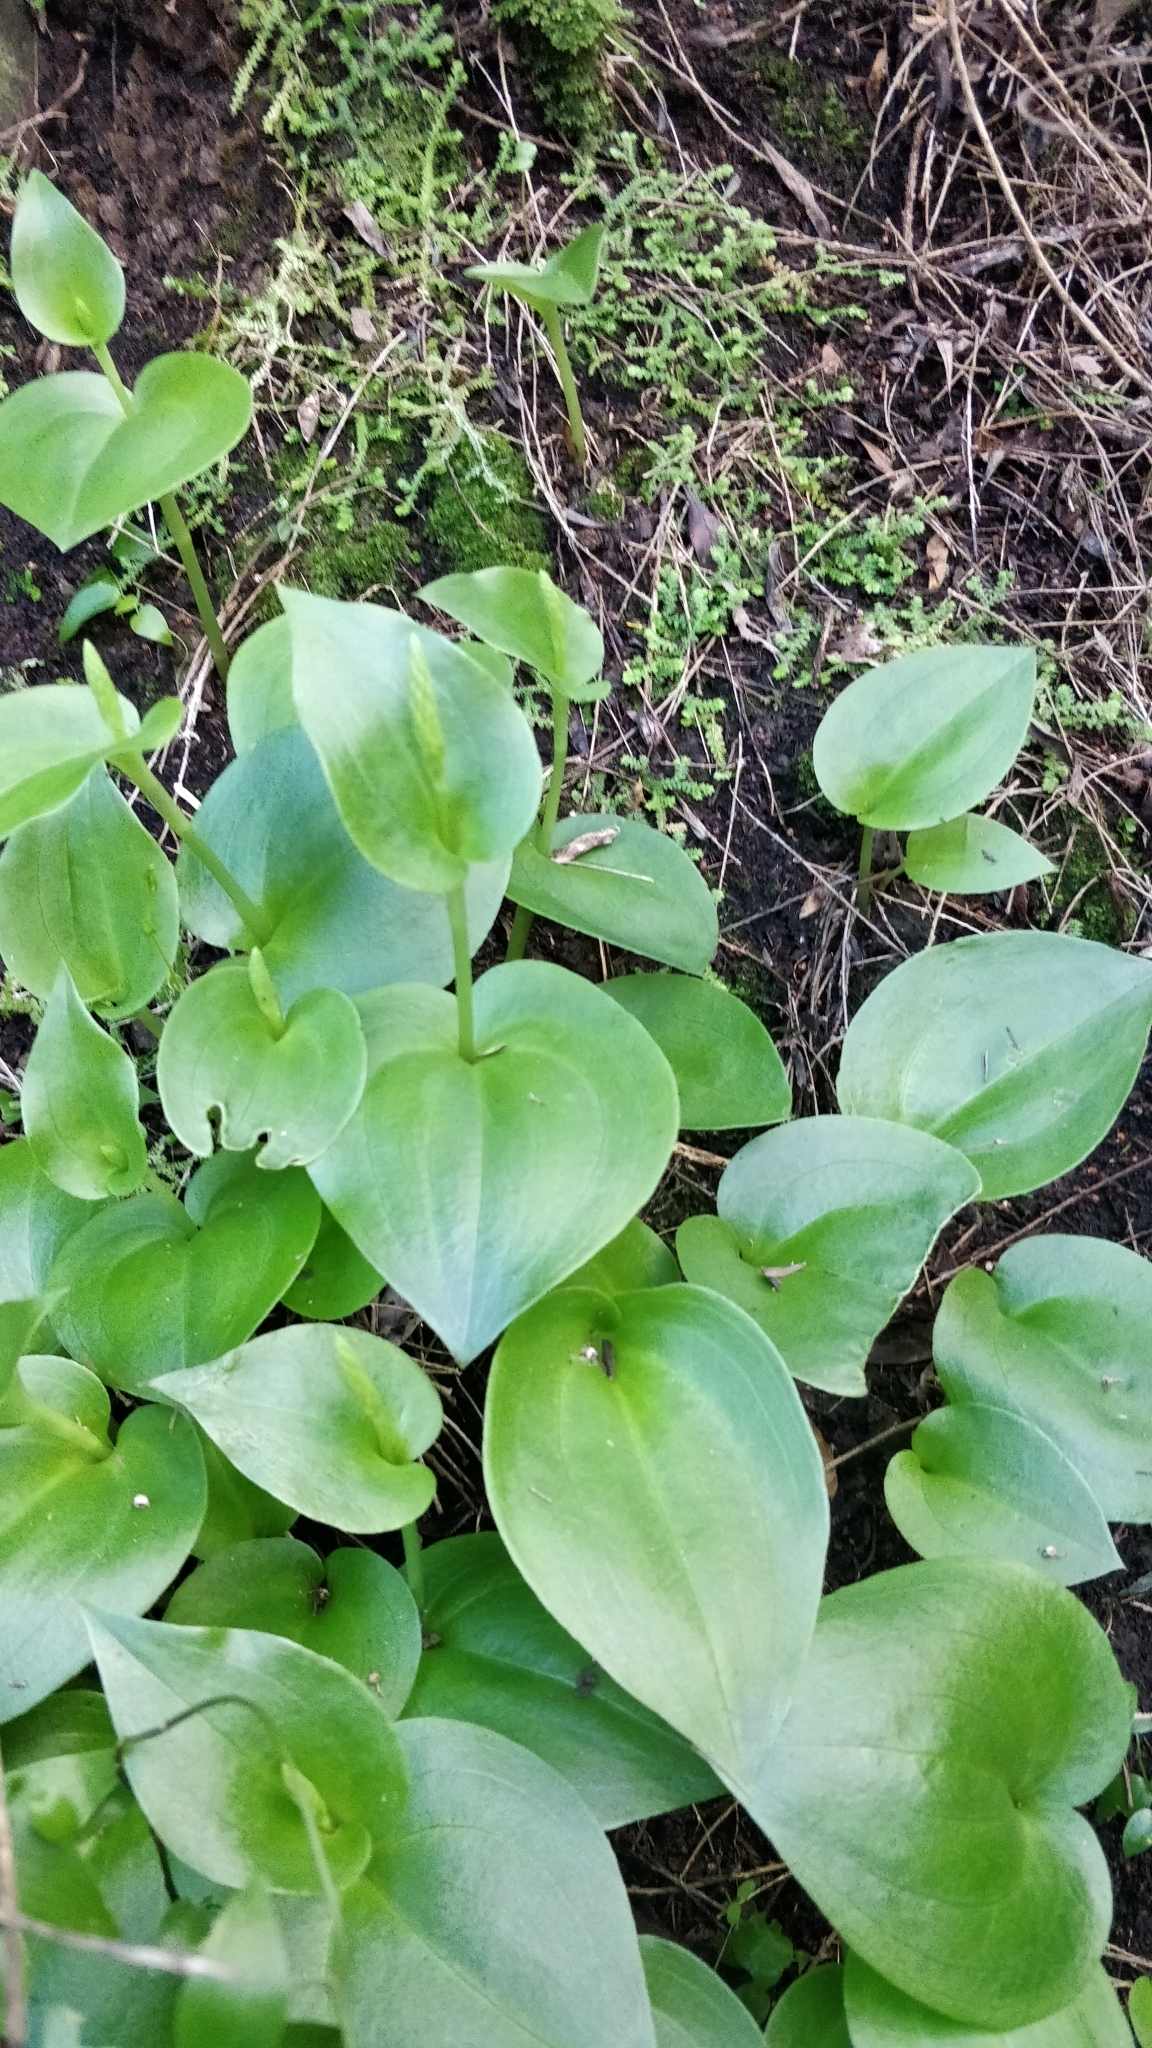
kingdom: Plantae
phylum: Tracheophyta
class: Liliopsida
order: Asparagales
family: Orchidaceae
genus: Gennaria
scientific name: Gennaria diphylla
